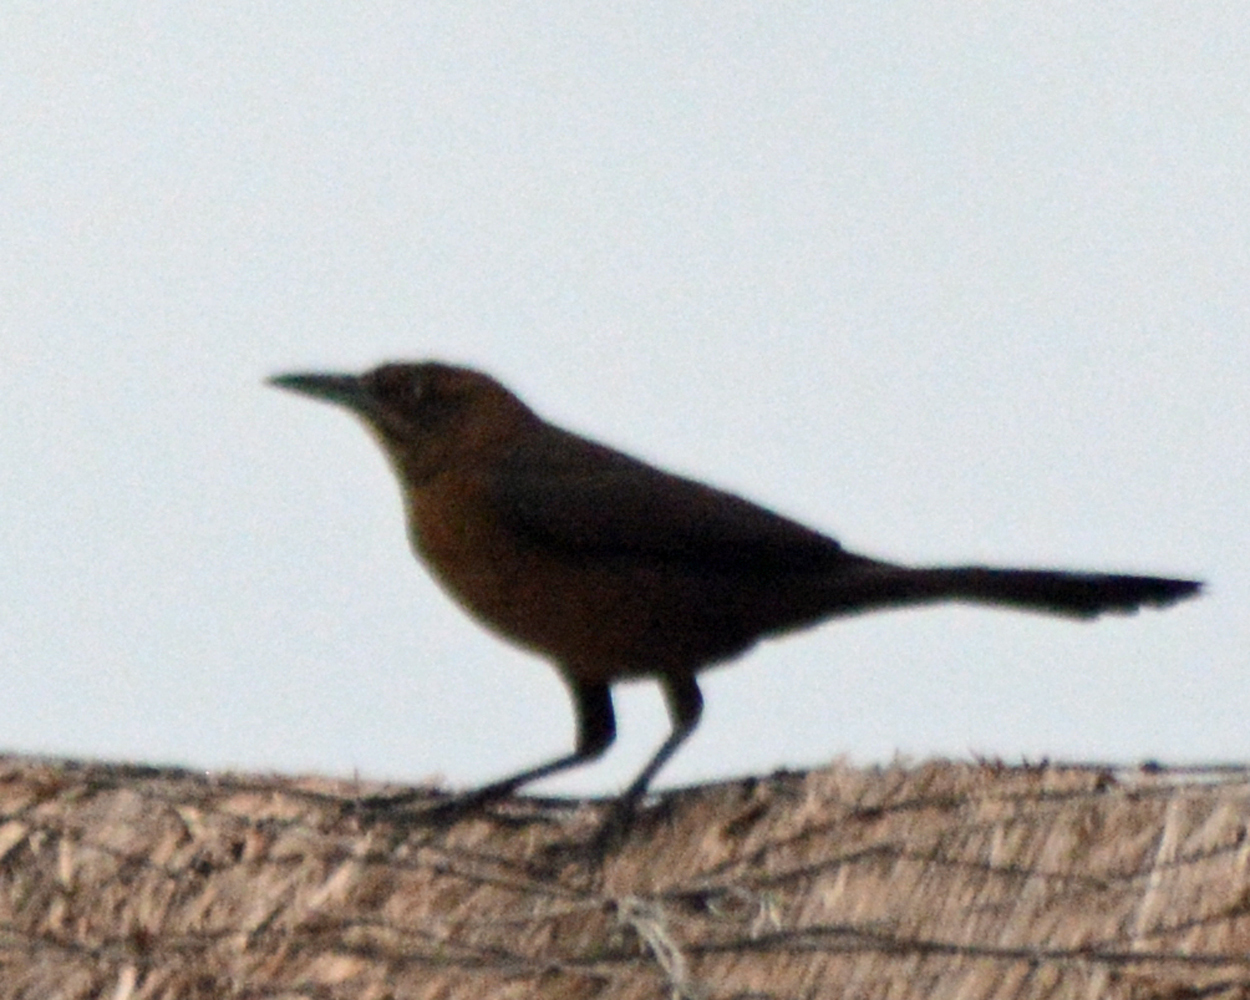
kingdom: Animalia
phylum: Chordata
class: Aves
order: Passeriformes
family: Icteridae
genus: Quiscalus
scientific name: Quiscalus mexicanus
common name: Great-tailed grackle
